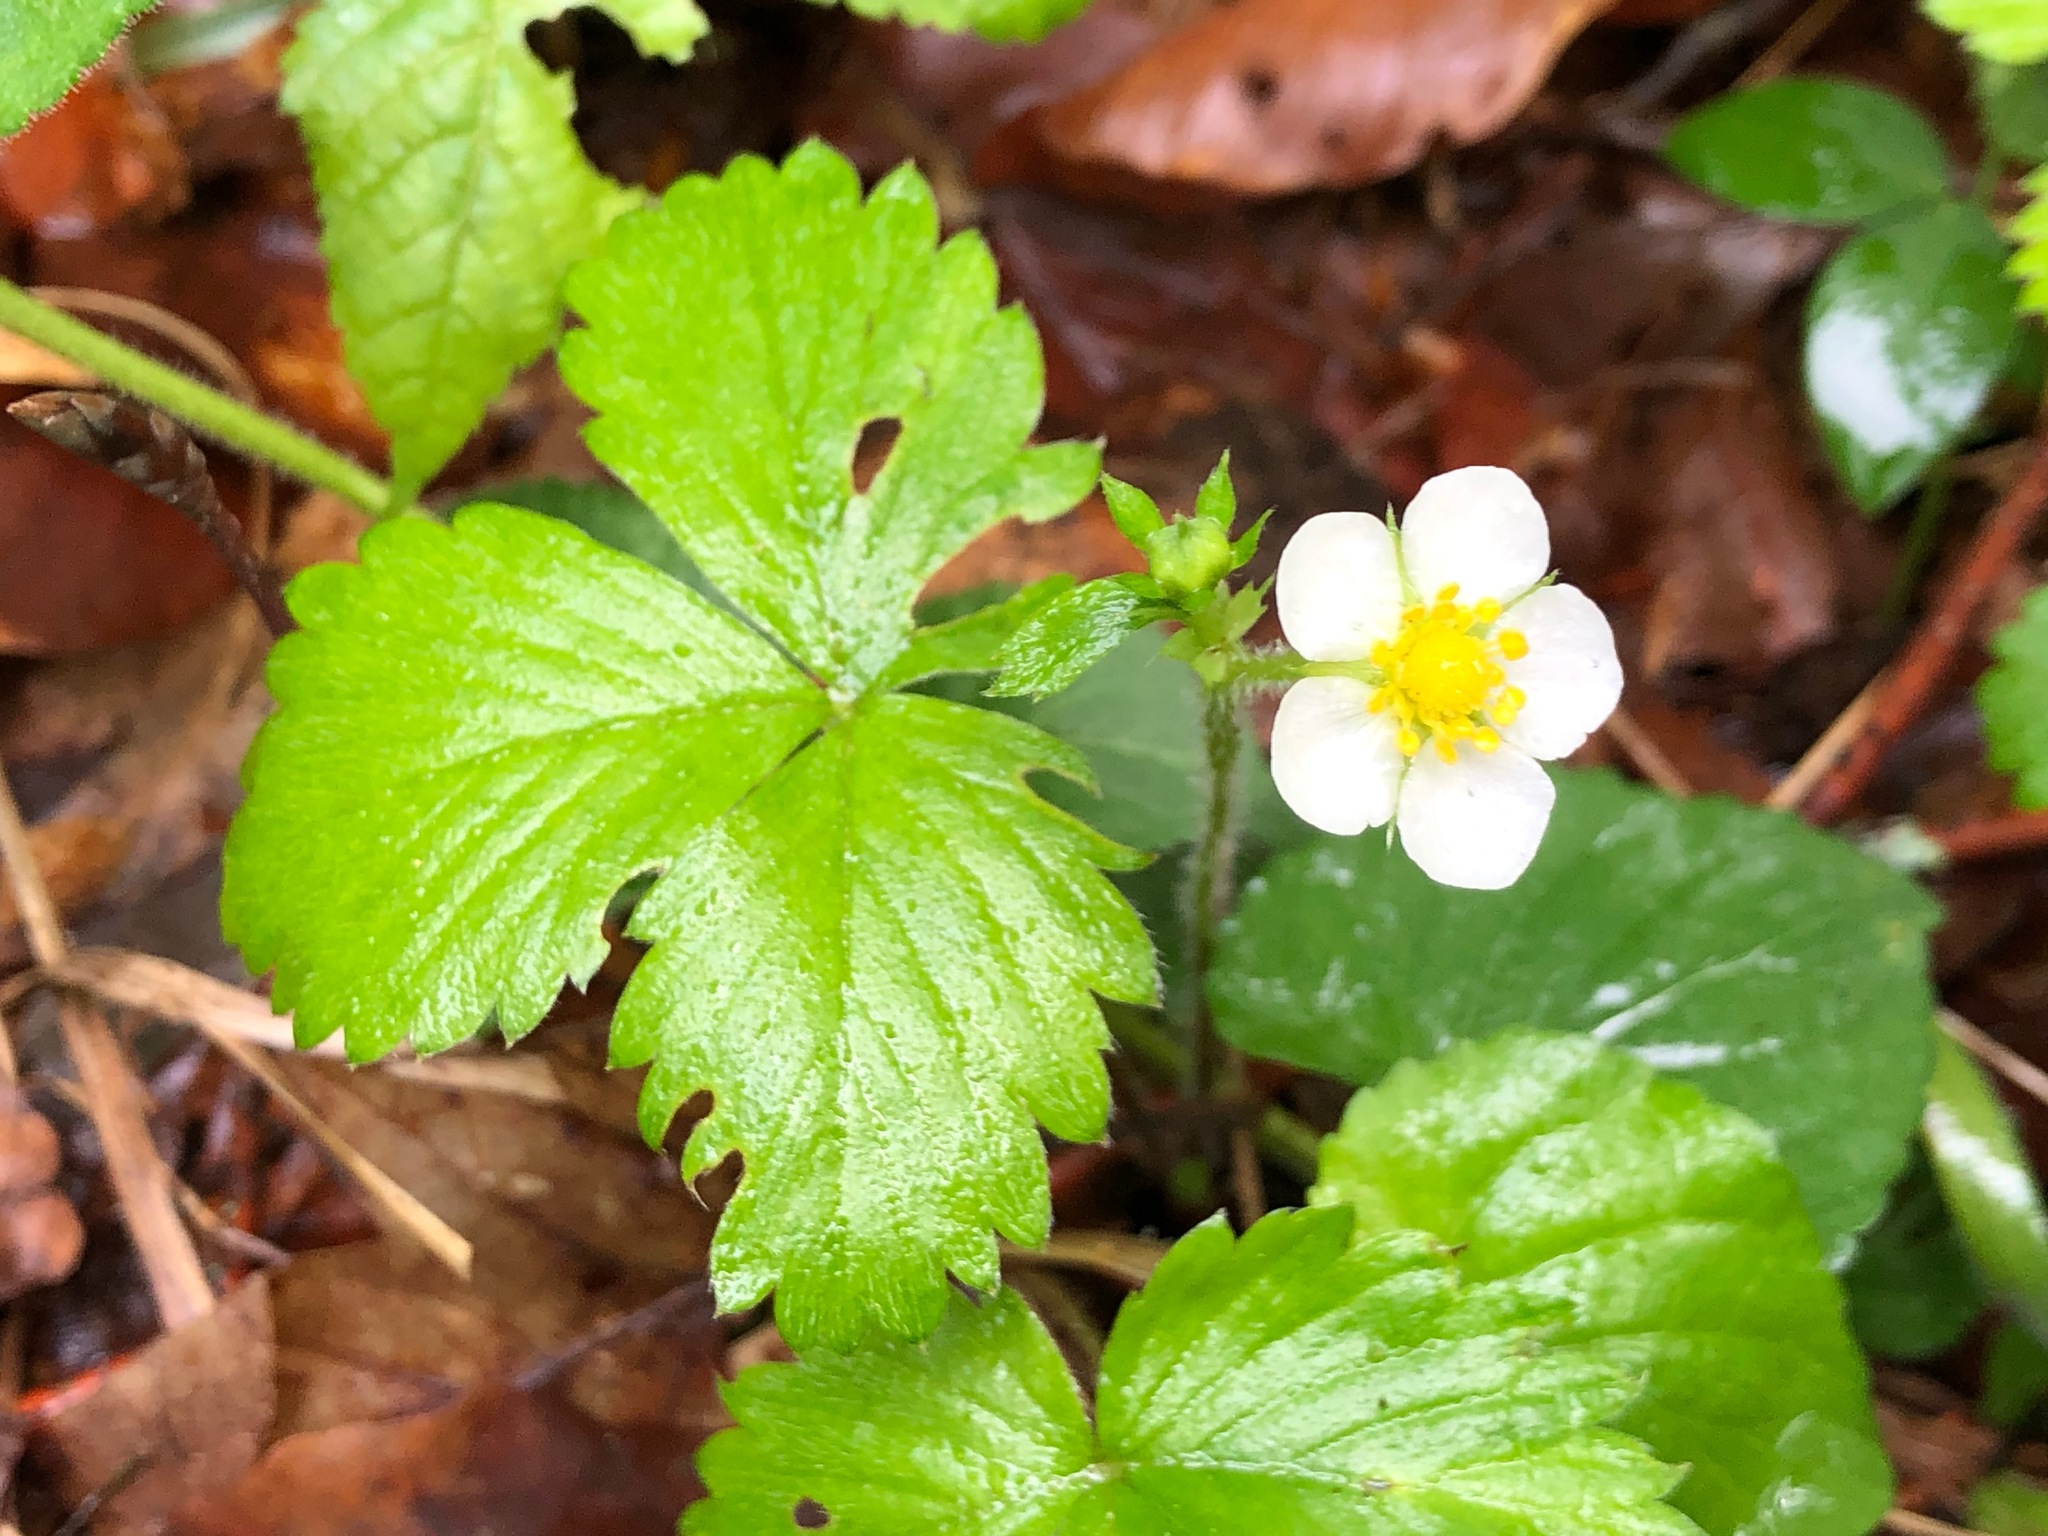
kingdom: Plantae
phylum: Tracheophyta
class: Magnoliopsida
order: Rosales
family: Rosaceae
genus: Fragaria
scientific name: Fragaria vesca
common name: Wild strawberry
